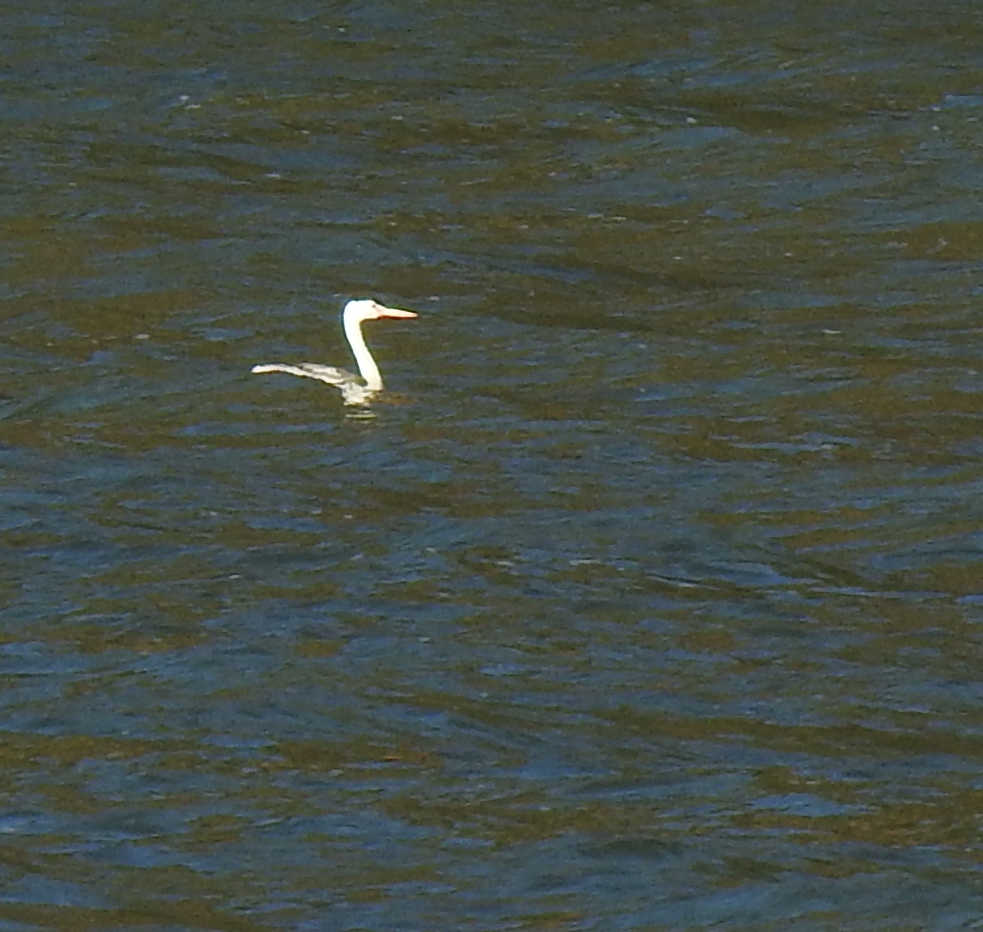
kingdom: Animalia
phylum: Chordata
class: Aves
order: Podicipediformes
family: Podicipedidae
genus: Aechmophorus
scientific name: Aechmophorus clarkii
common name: Clark's grebe
